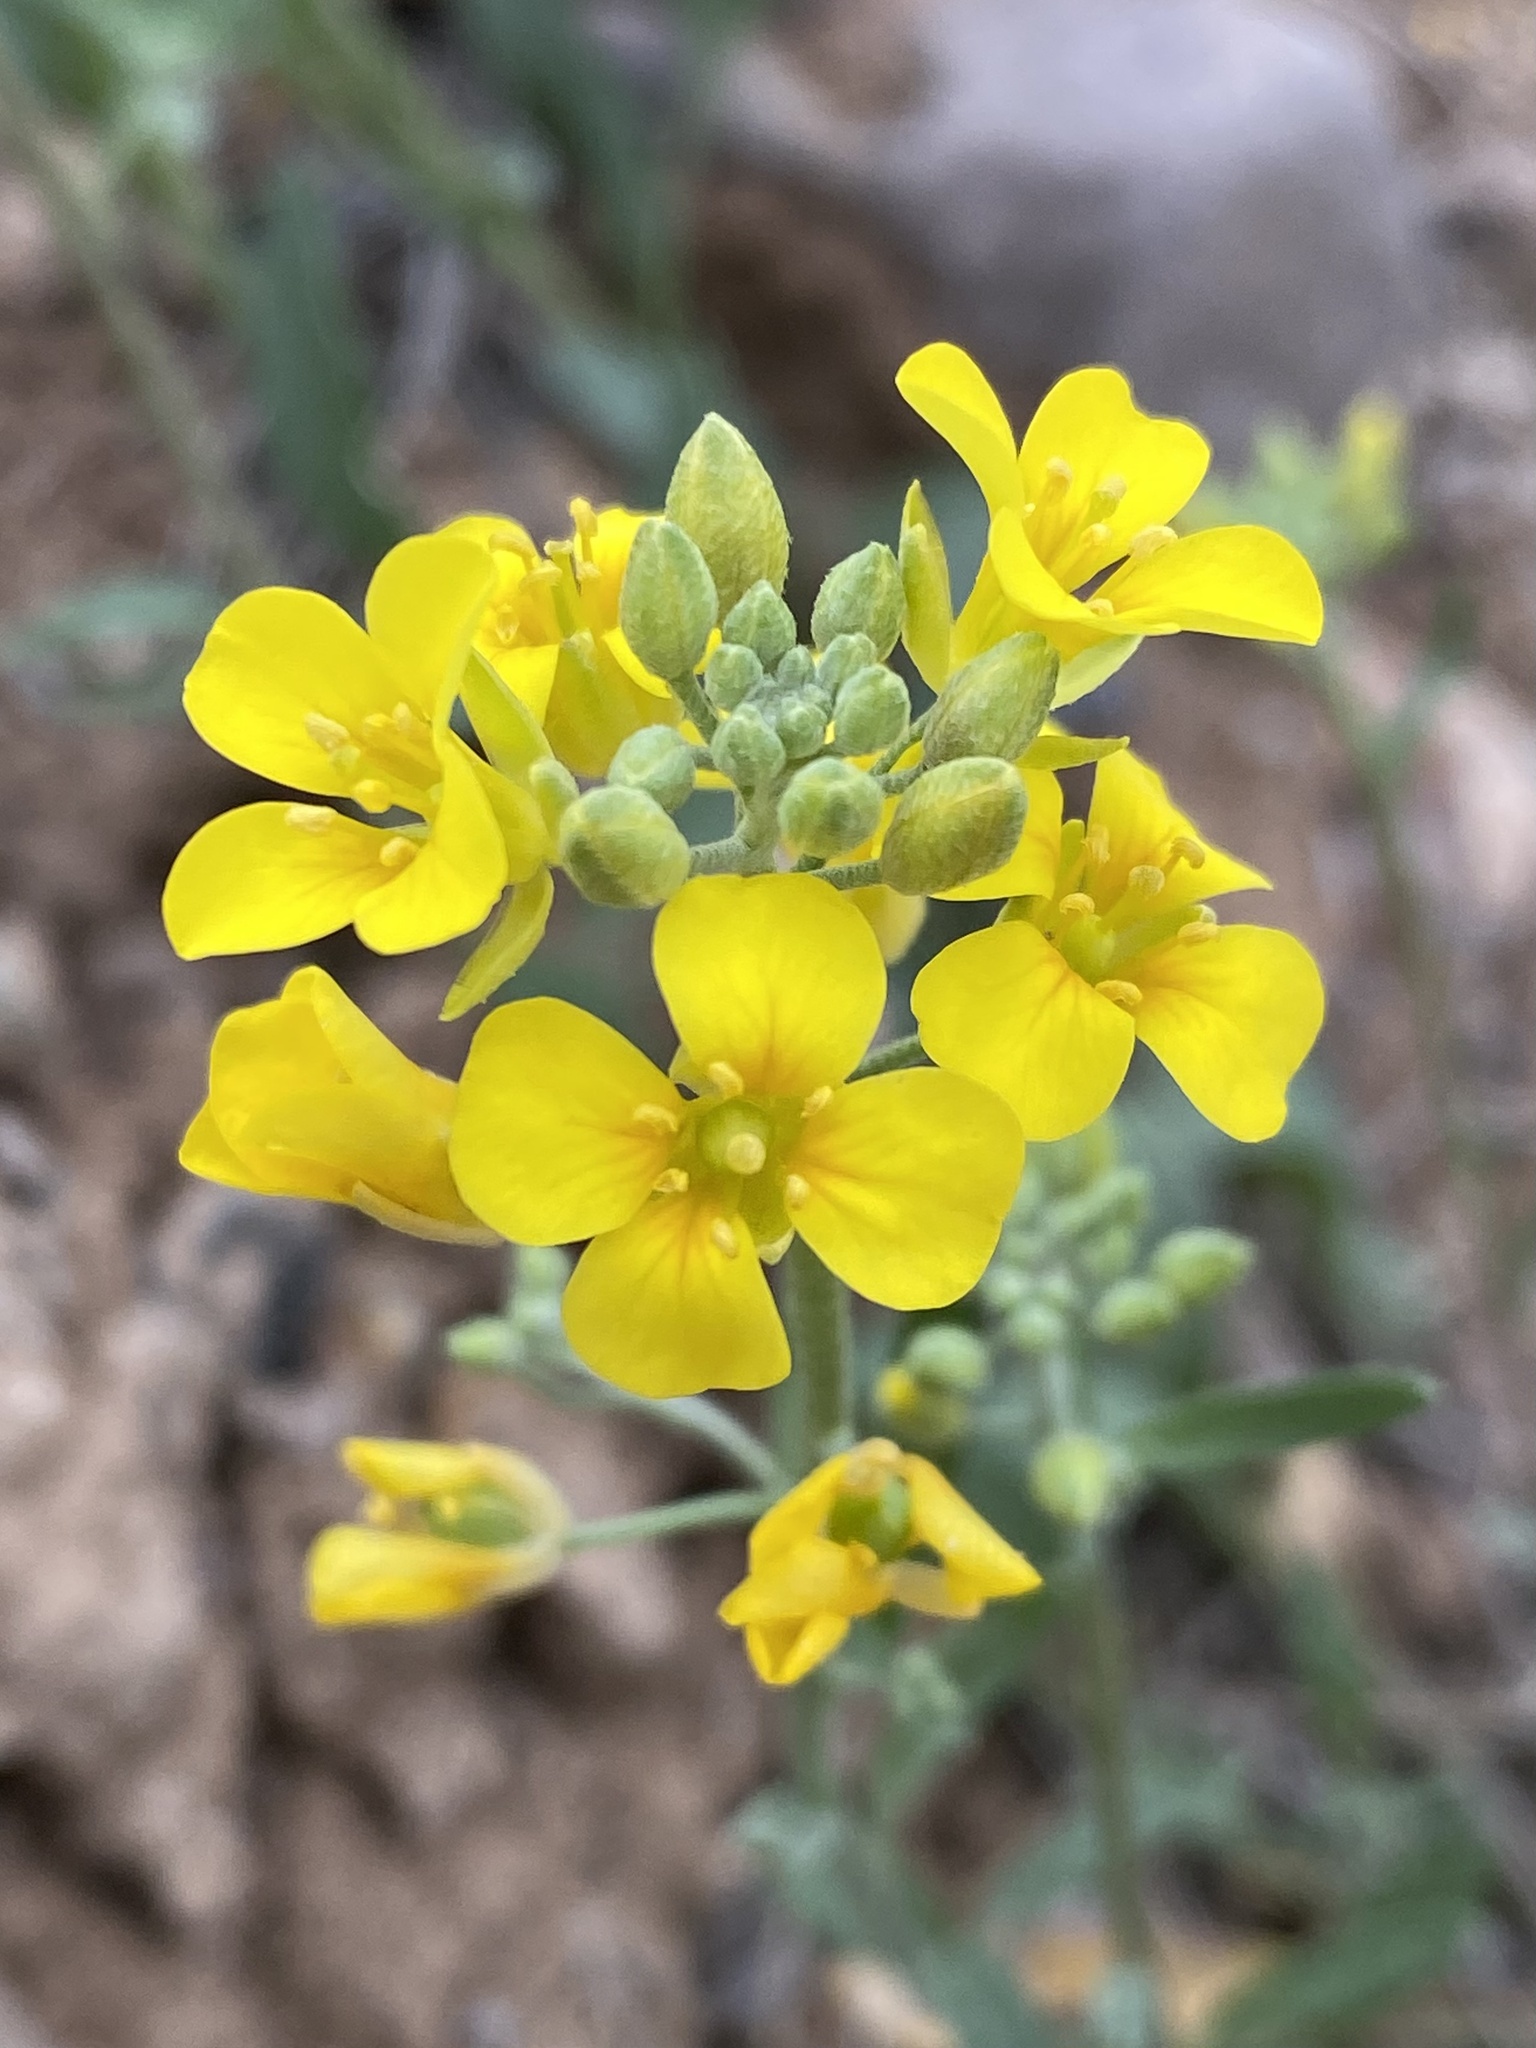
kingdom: Plantae
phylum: Tracheophyta
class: Magnoliopsida
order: Brassicales
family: Brassicaceae
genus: Physaria
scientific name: Physaria gordonii
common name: Gordon's bladderpod
